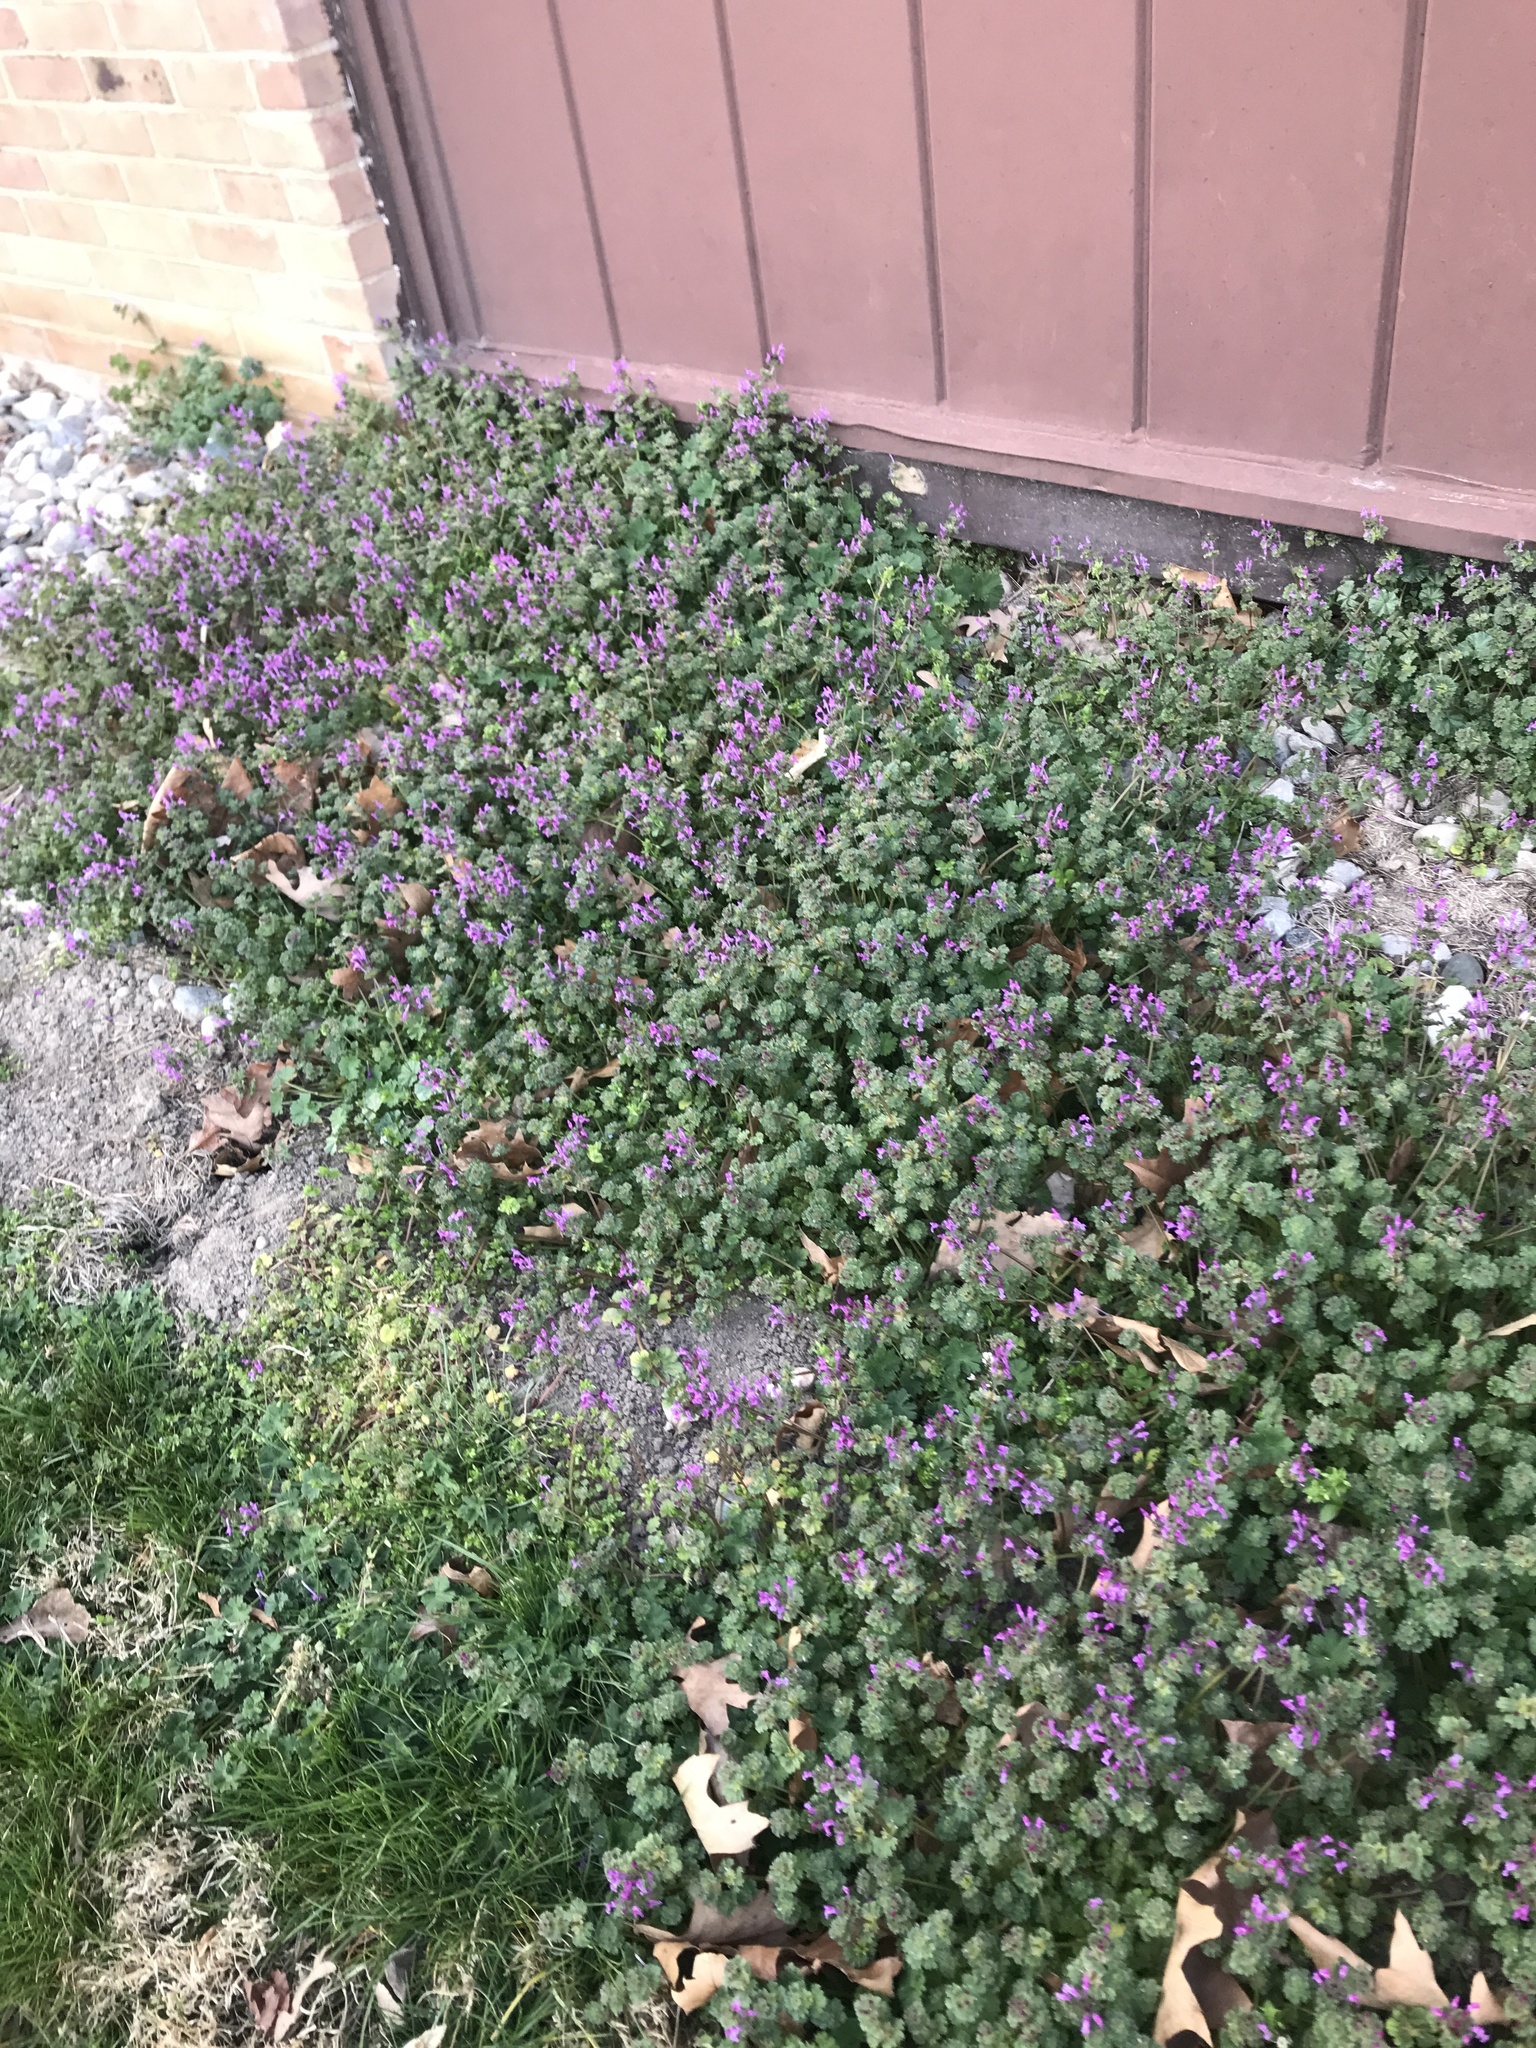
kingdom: Plantae
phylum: Tracheophyta
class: Magnoliopsida
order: Lamiales
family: Lamiaceae
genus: Lamium
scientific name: Lamium amplexicaule
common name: Henbit dead-nettle
